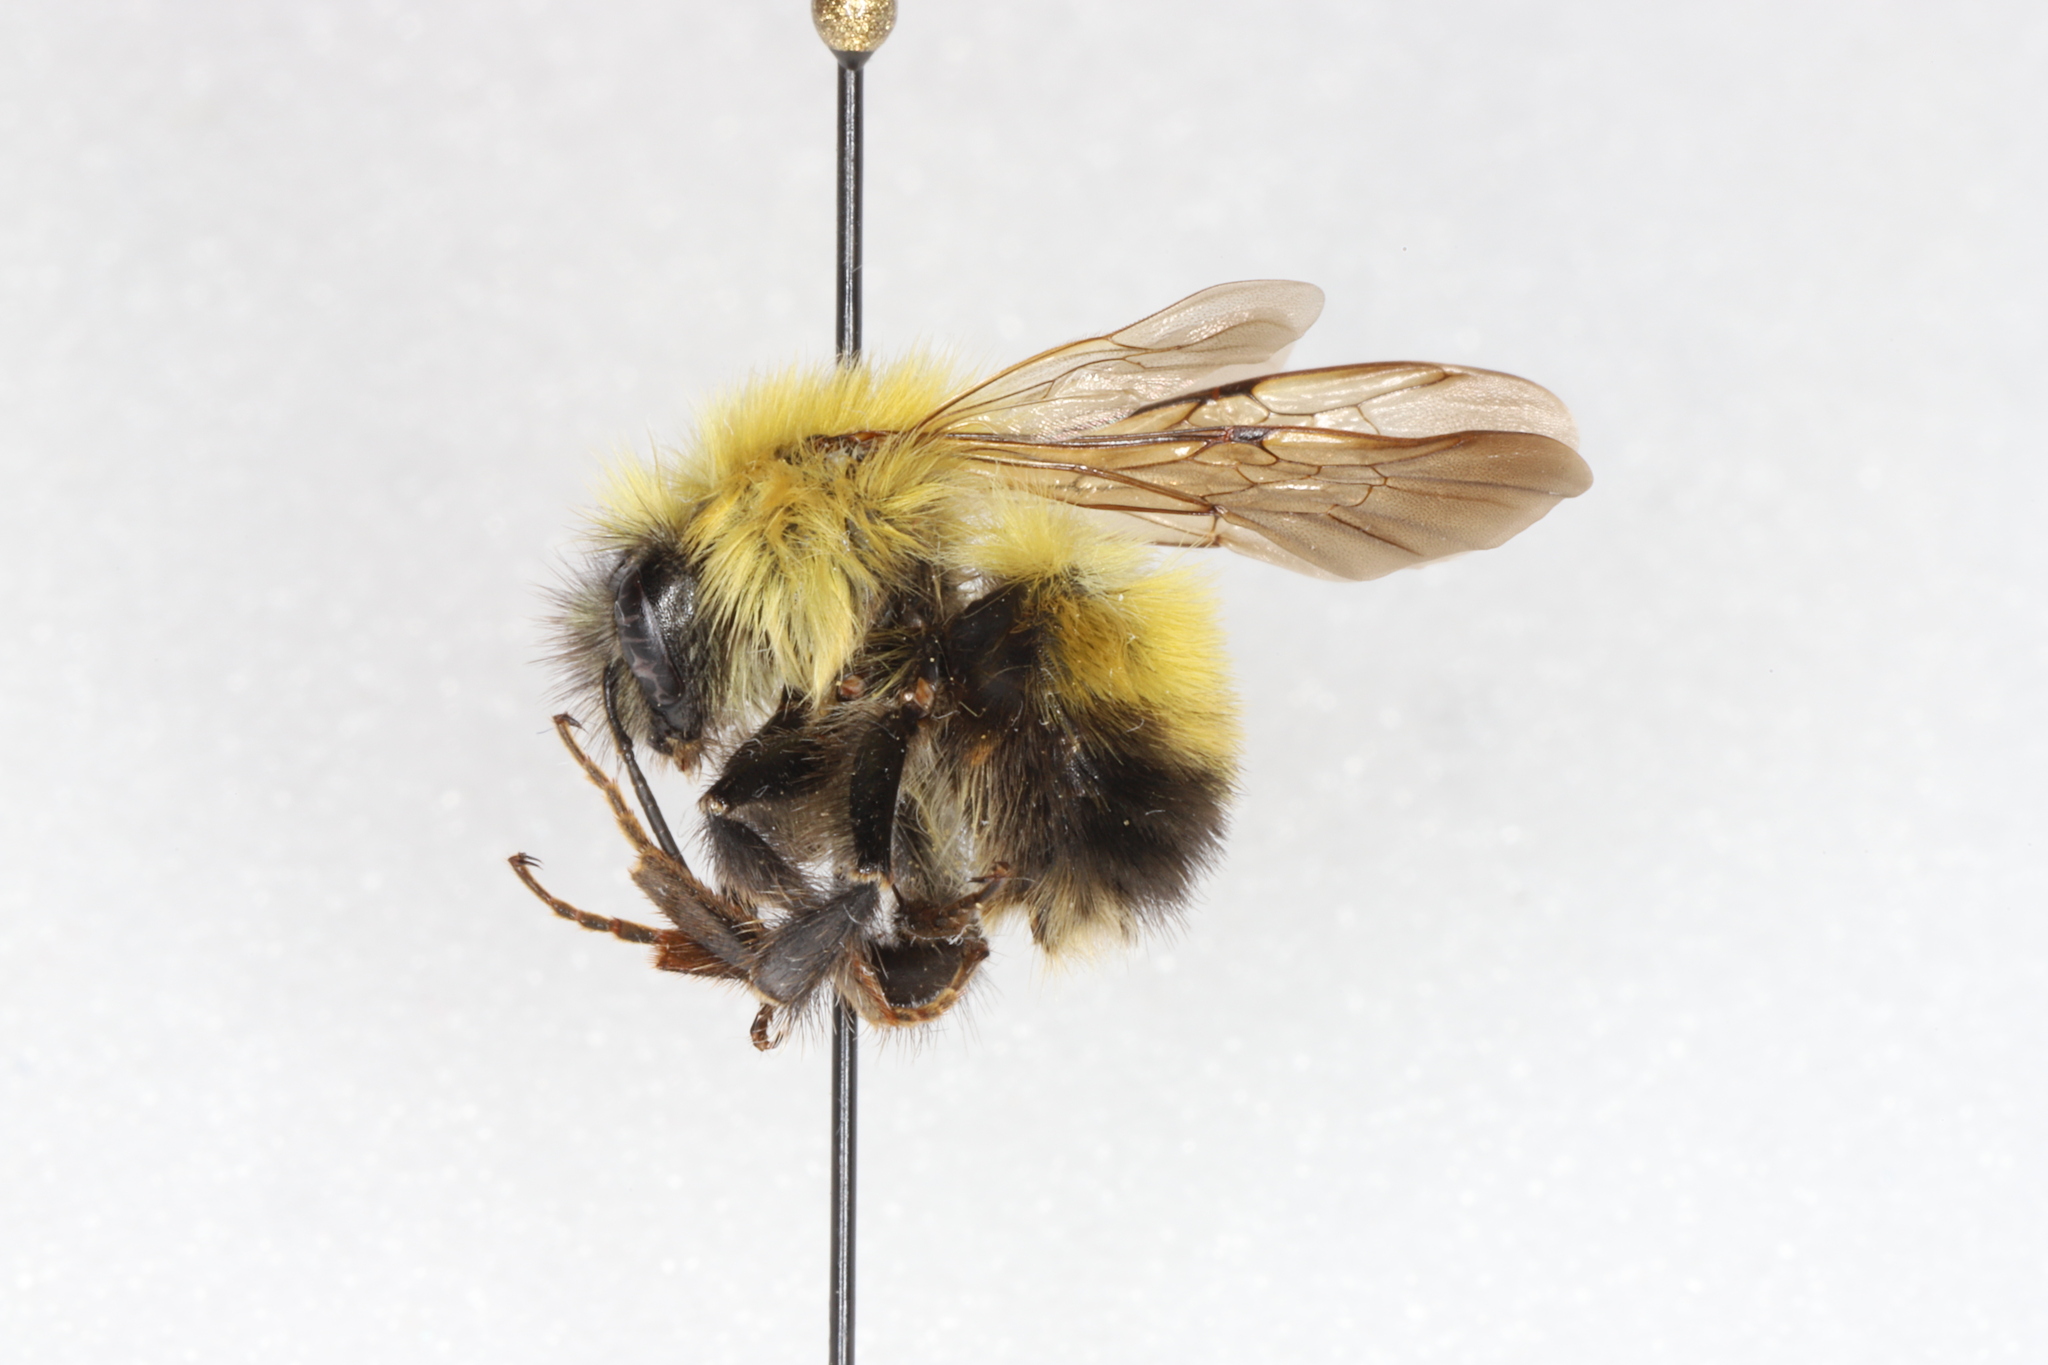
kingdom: Animalia
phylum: Arthropoda
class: Insecta
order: Hymenoptera
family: Apidae
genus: Bombus
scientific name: Bombus perplexus
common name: Confusing bumble bee
